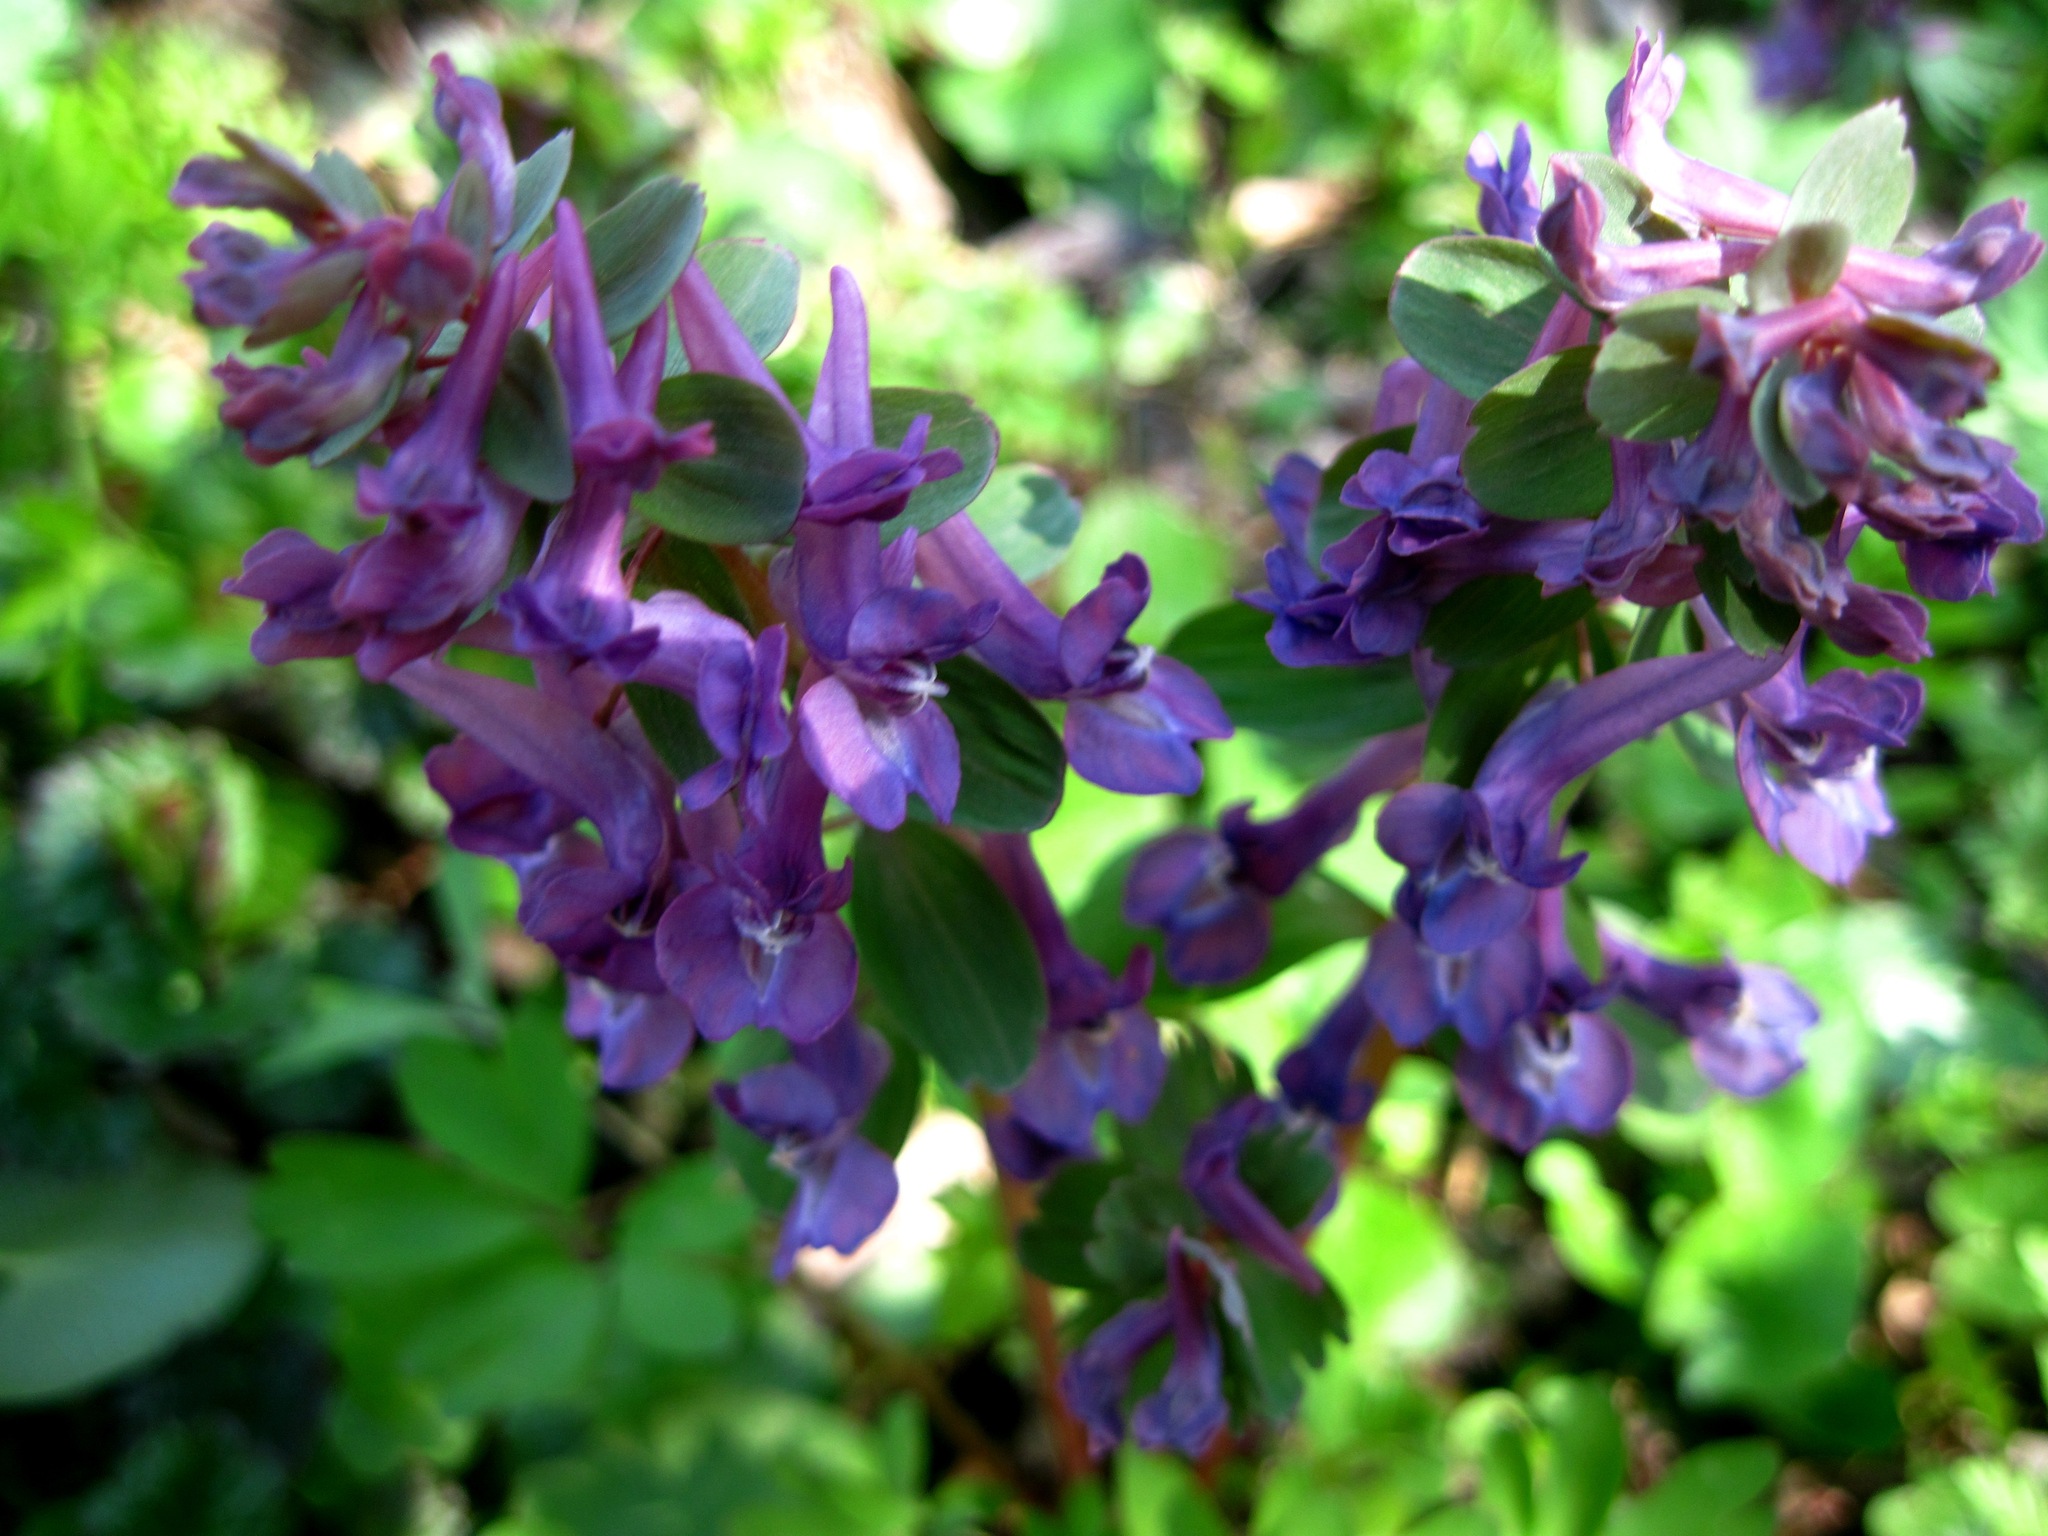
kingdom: Plantae
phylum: Tracheophyta
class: Magnoliopsida
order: Ranunculales
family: Papaveraceae
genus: Corydalis
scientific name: Corydalis solida
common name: Bird-in-a-bush
